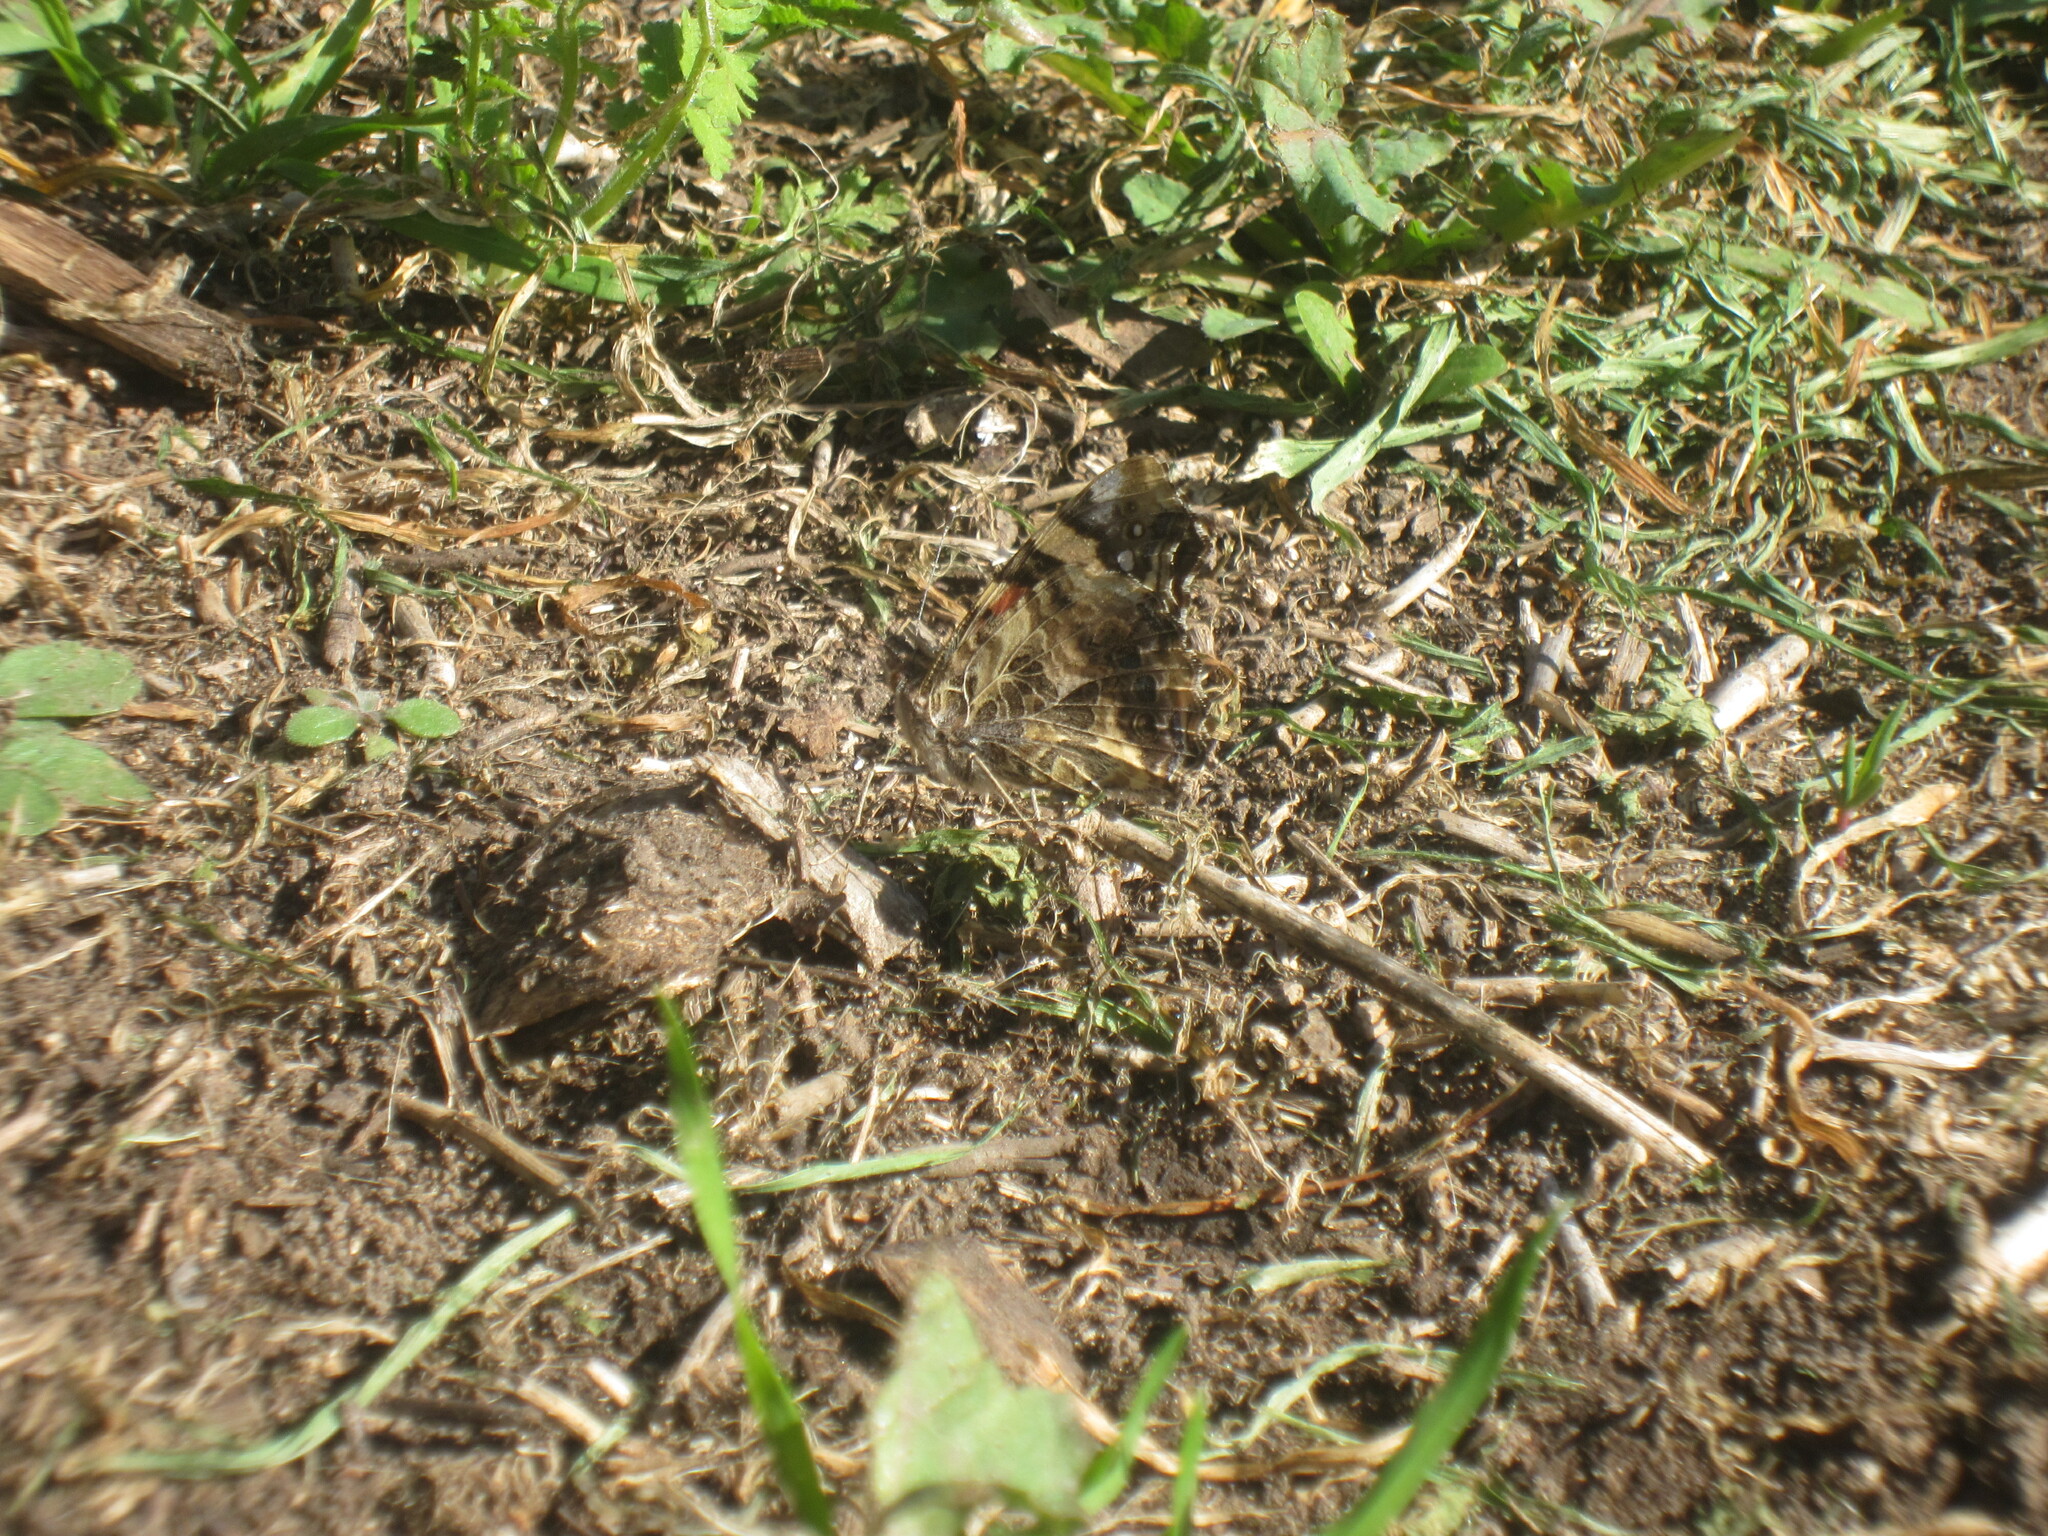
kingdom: Animalia
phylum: Arthropoda
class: Insecta
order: Lepidoptera
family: Nymphalidae
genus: Vanessa
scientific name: Vanessa annabella
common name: West coast lady
